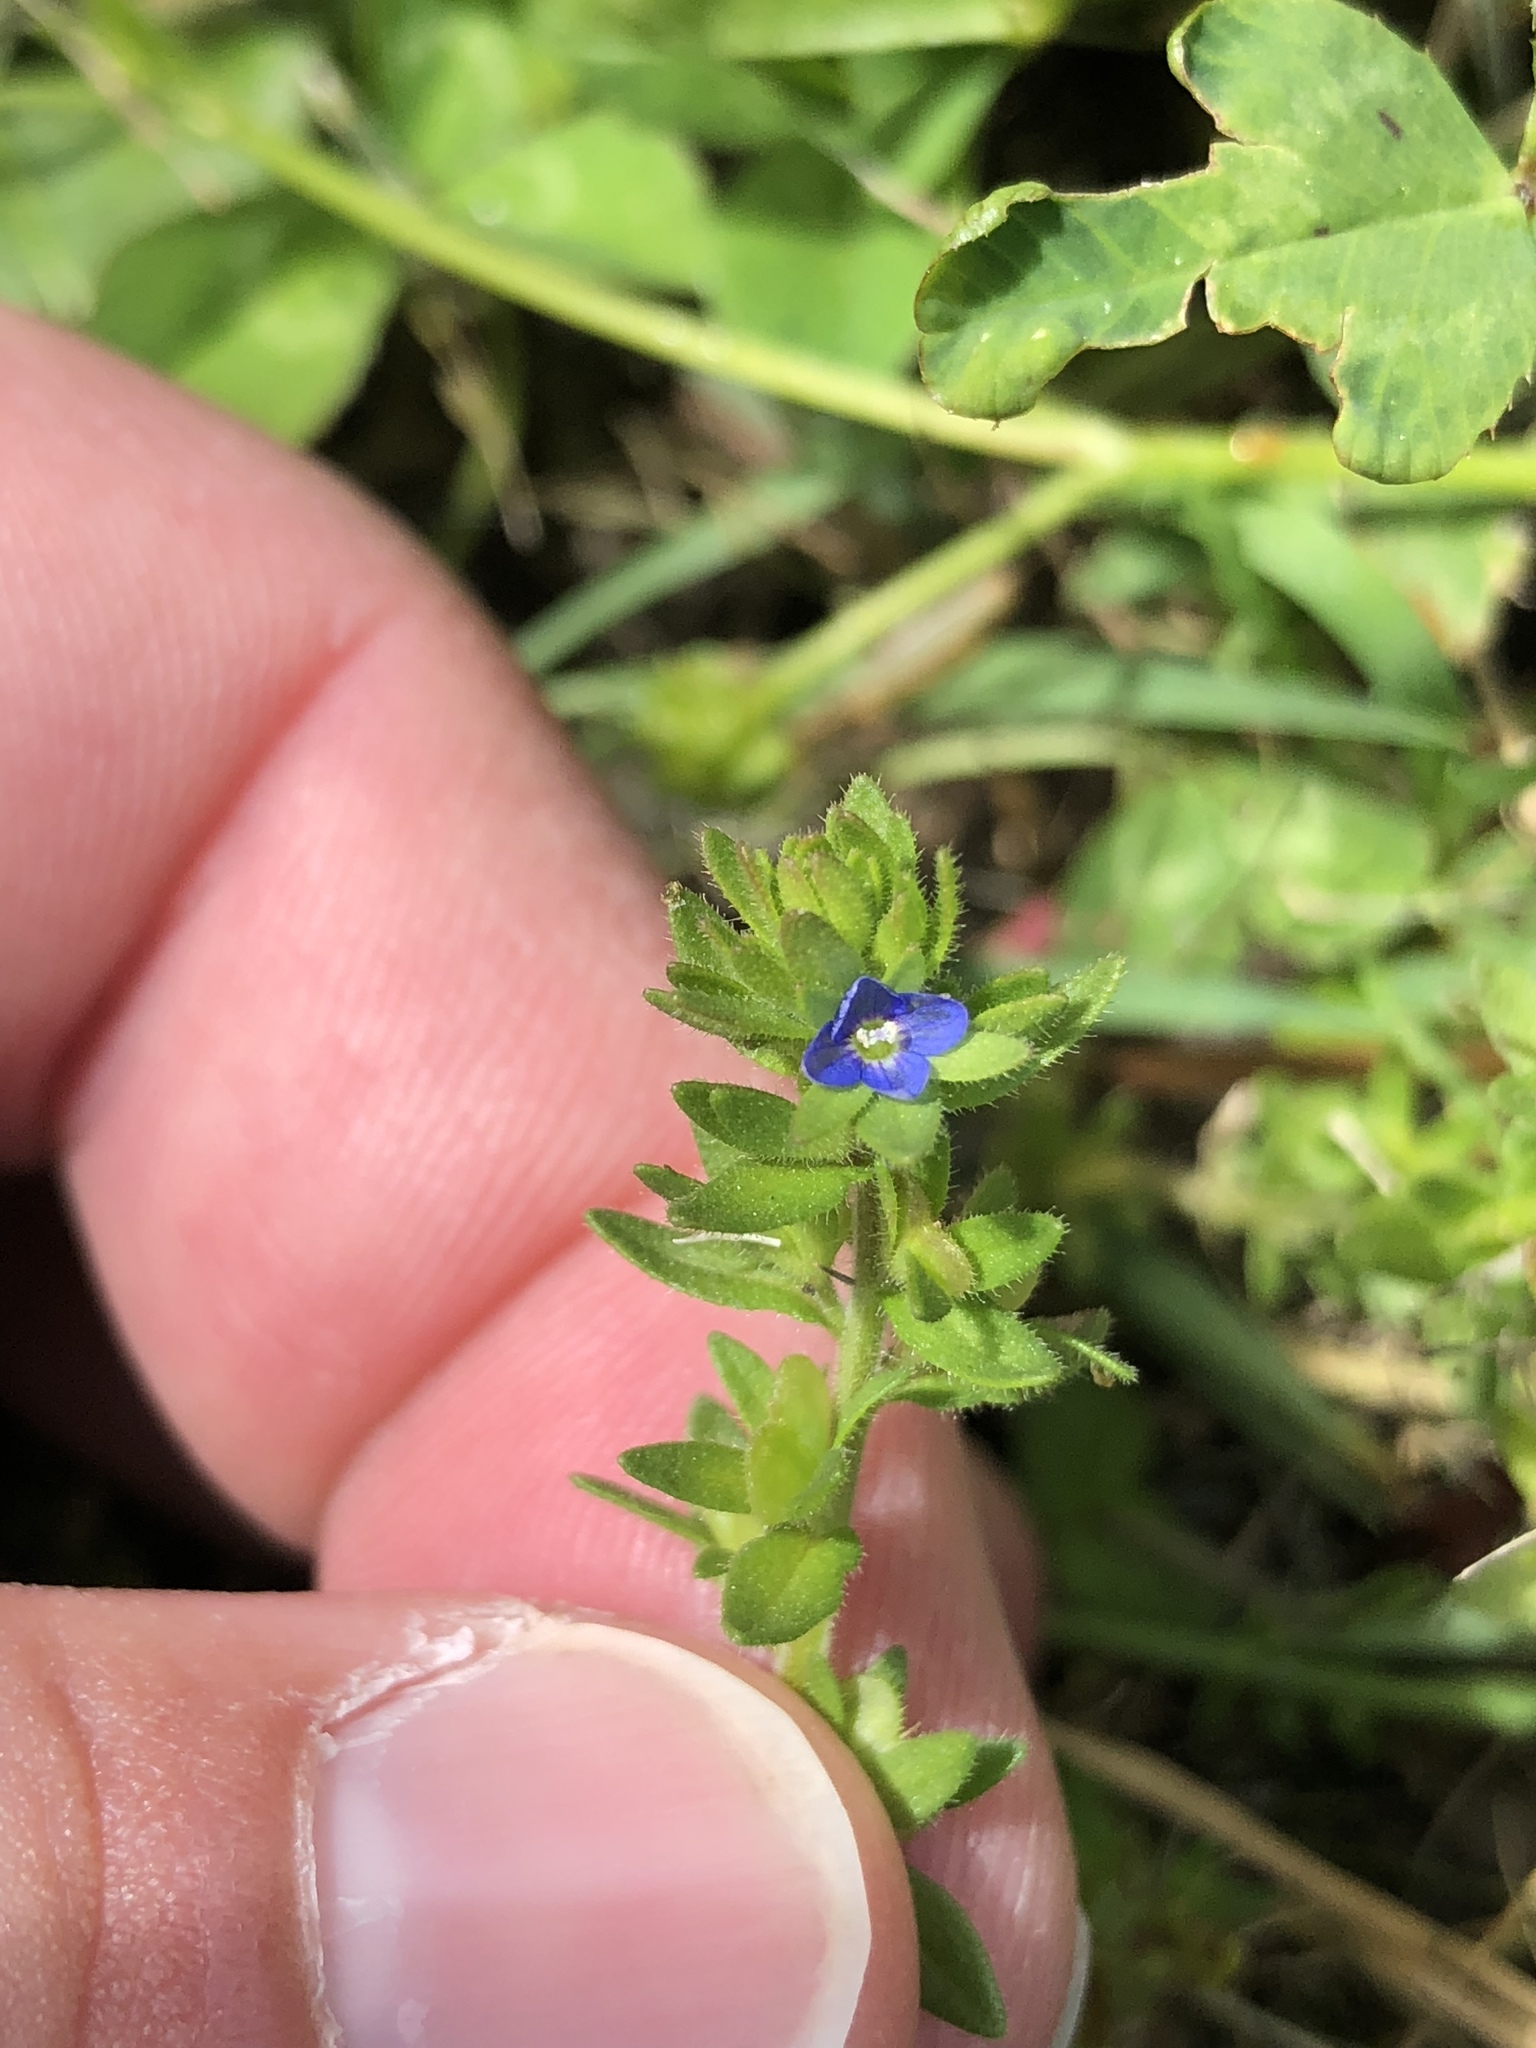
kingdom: Plantae
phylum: Tracheophyta
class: Magnoliopsida
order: Lamiales
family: Plantaginaceae
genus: Veronica
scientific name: Veronica arvensis
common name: Corn speedwell
